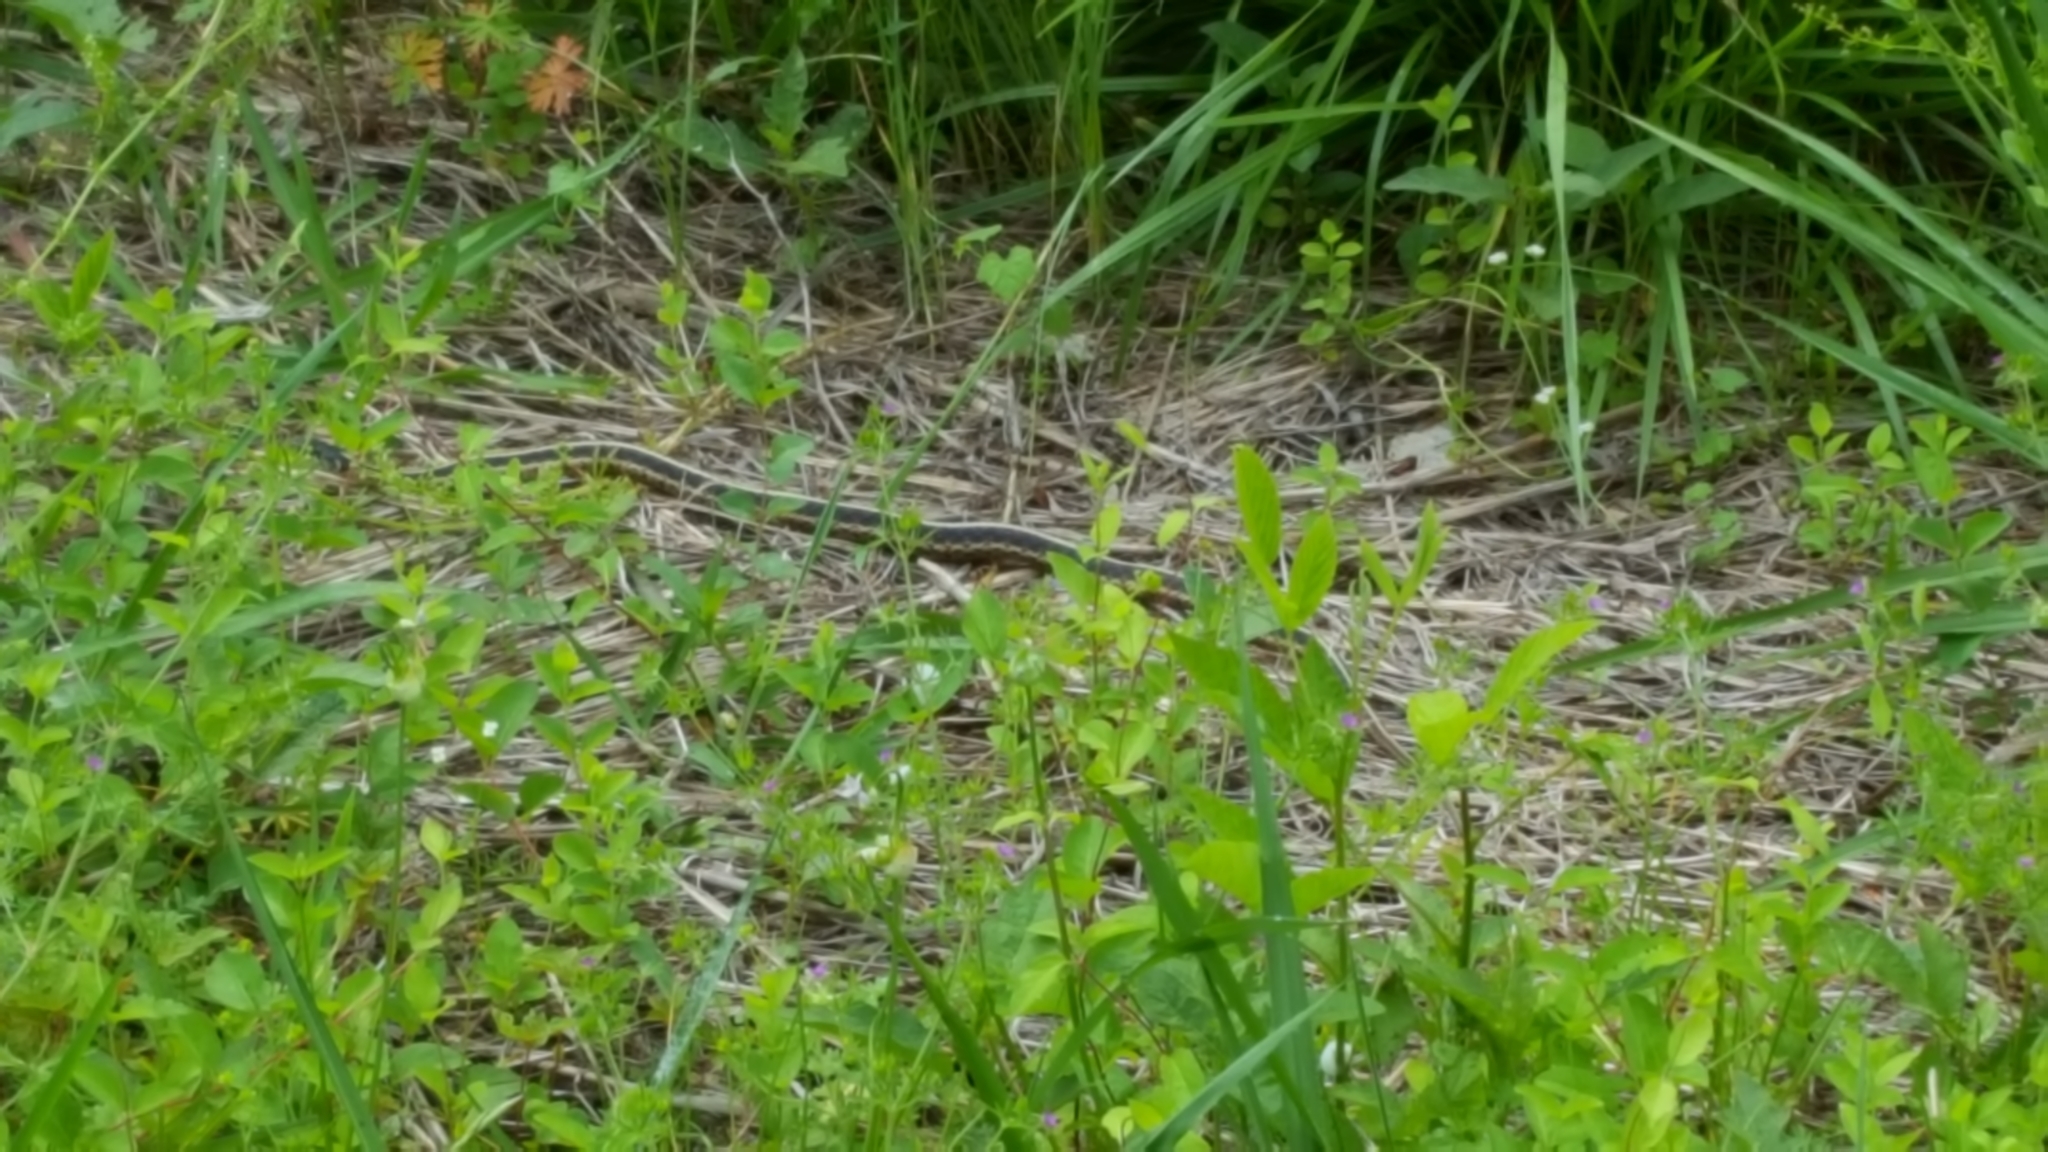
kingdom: Animalia
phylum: Chordata
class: Squamata
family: Colubridae
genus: Thamnophis
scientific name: Thamnophis sirtalis
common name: Common garter snake
